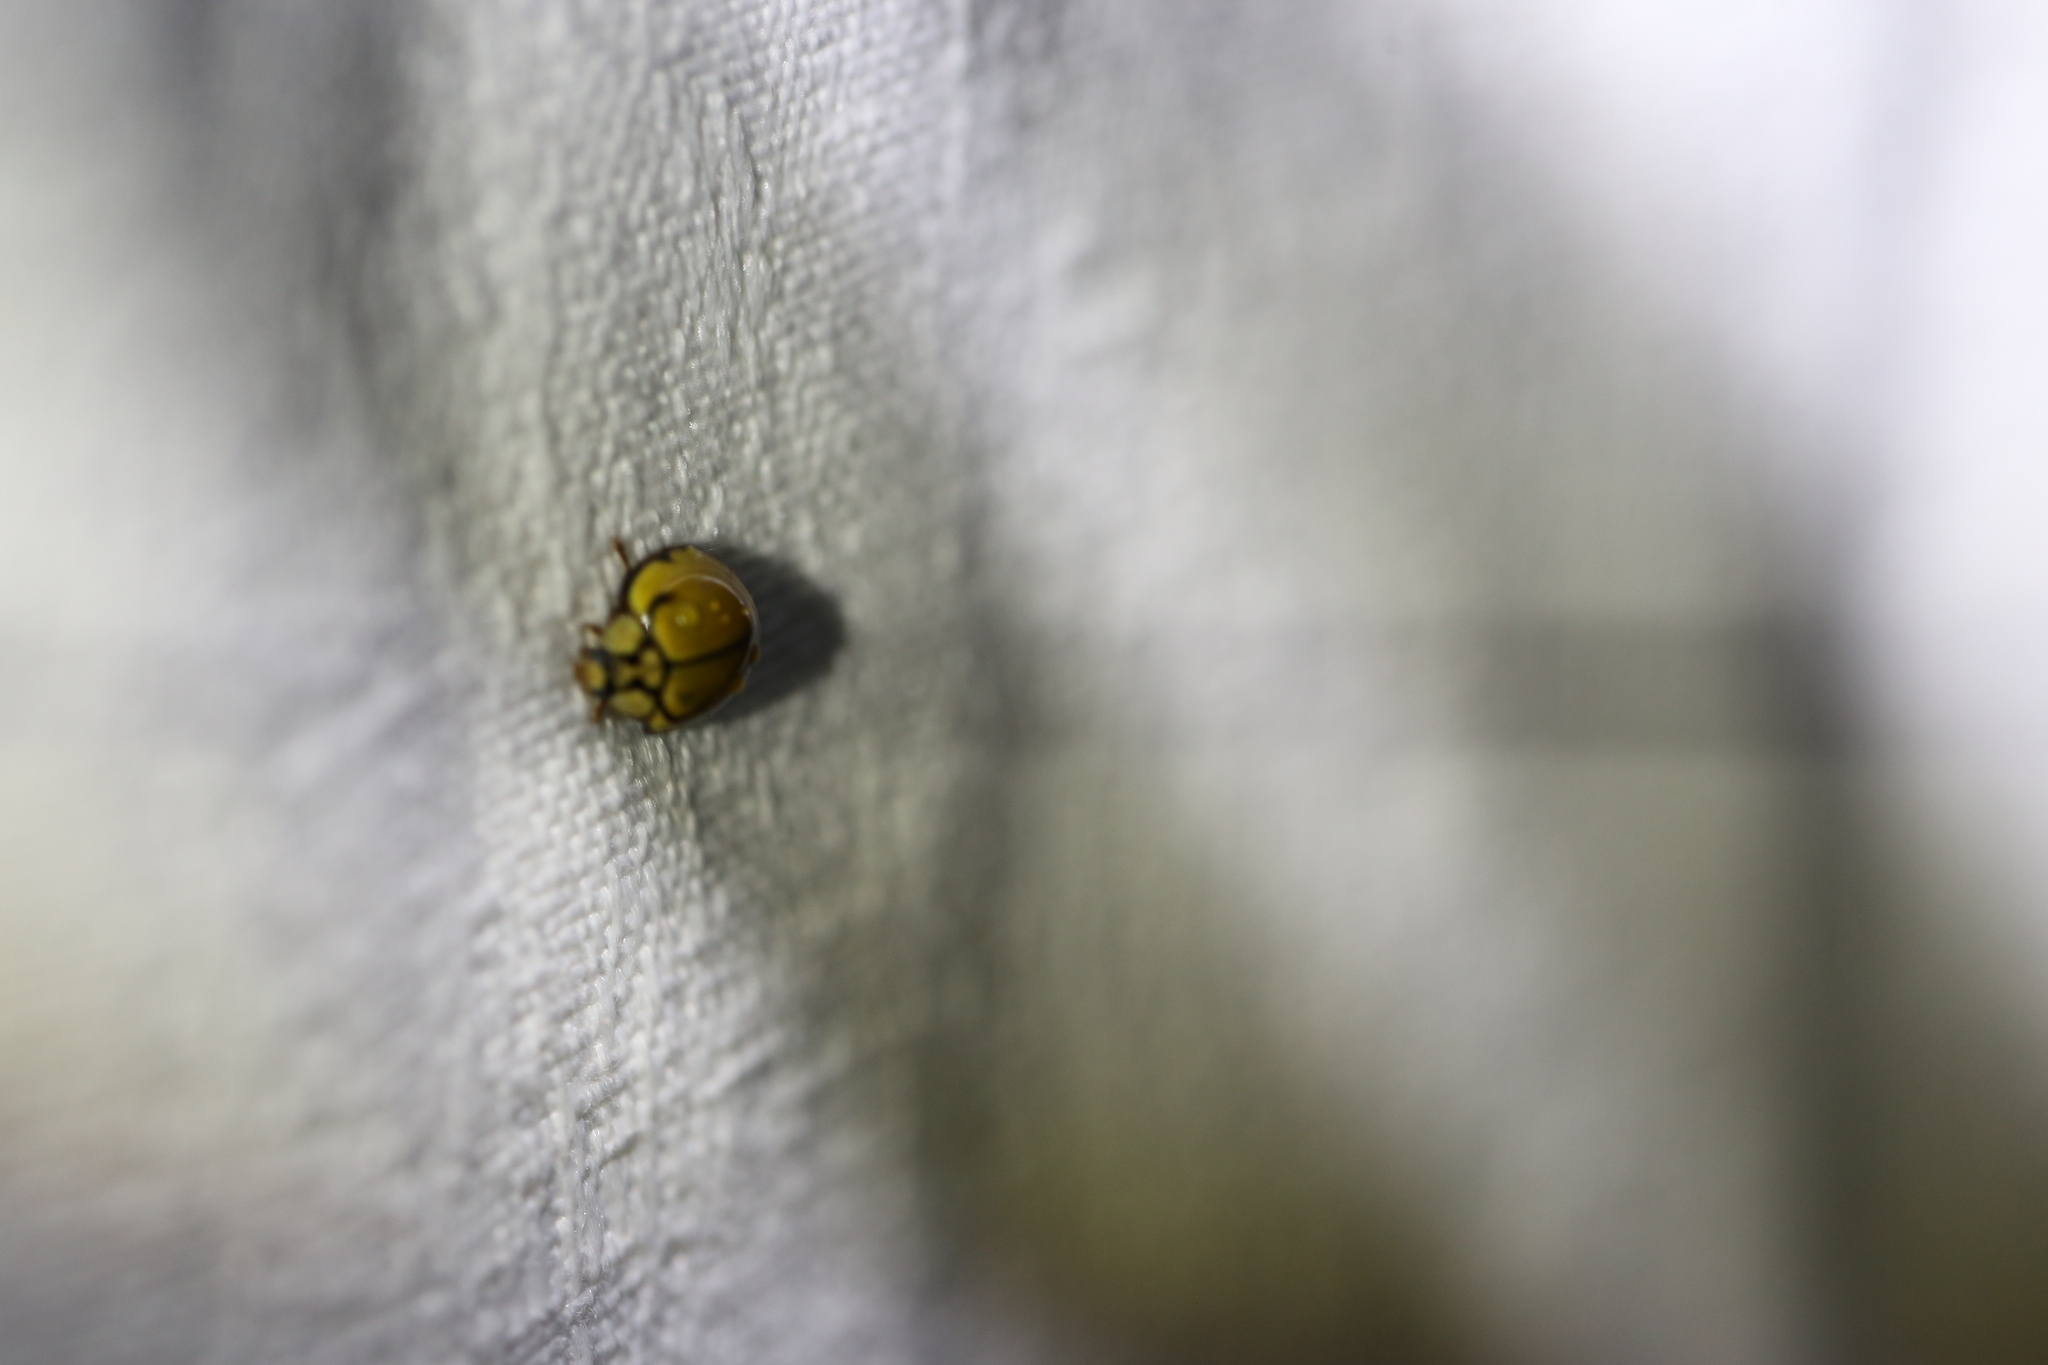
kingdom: Animalia
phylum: Arthropoda
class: Insecta
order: Coleoptera
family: Coccinellidae
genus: Harmonia
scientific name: Harmonia
